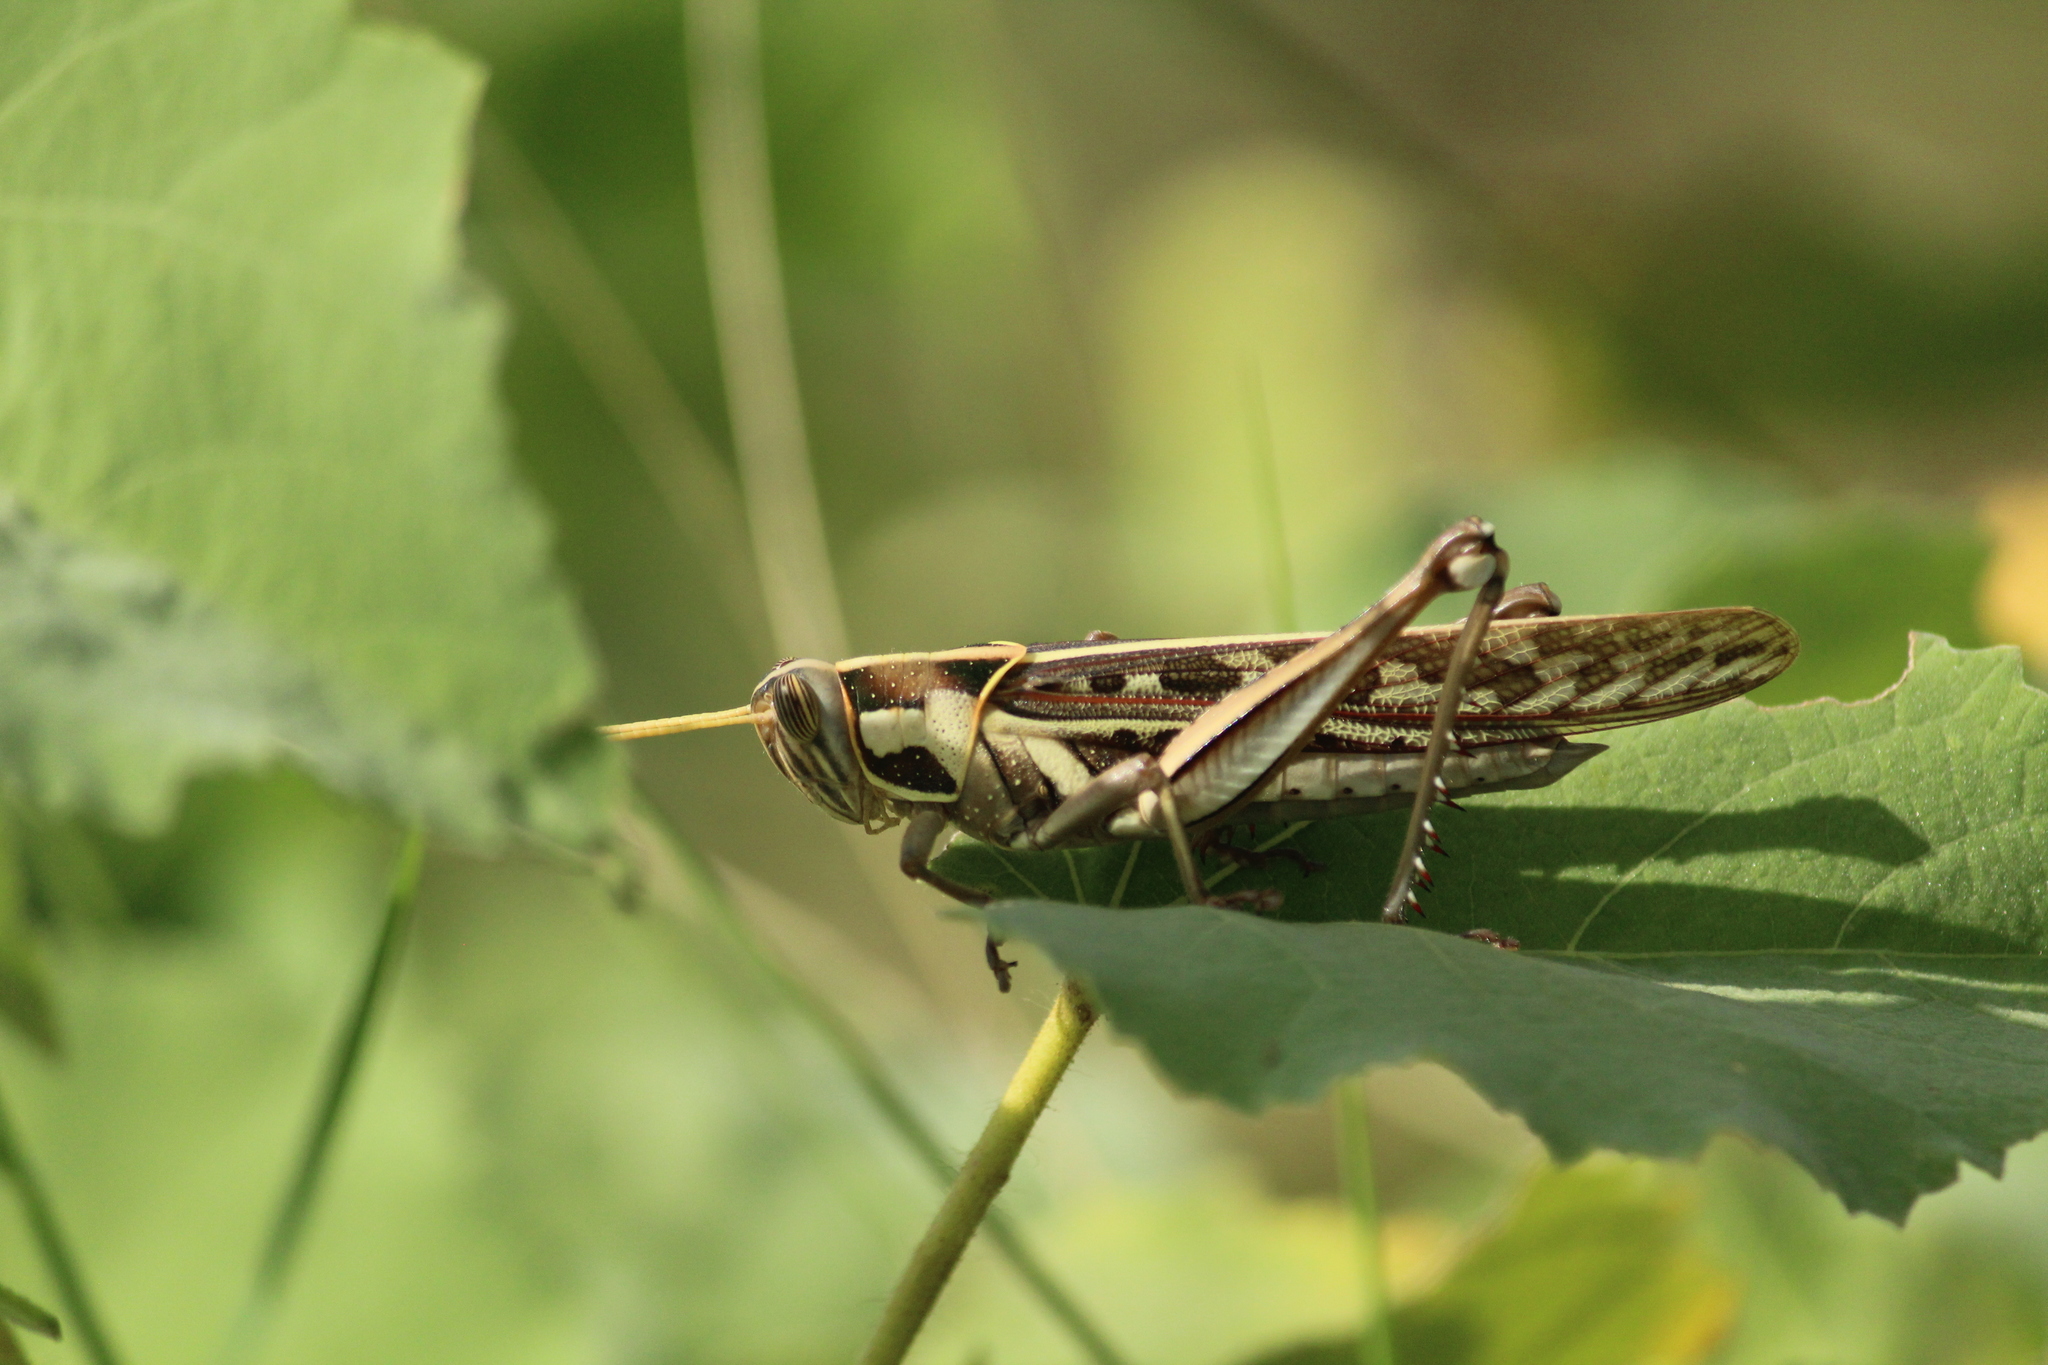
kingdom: Animalia
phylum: Arthropoda
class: Insecta
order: Orthoptera
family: Acrididae
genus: Cyrtacanthacris
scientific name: Cyrtacanthacris tatarica
